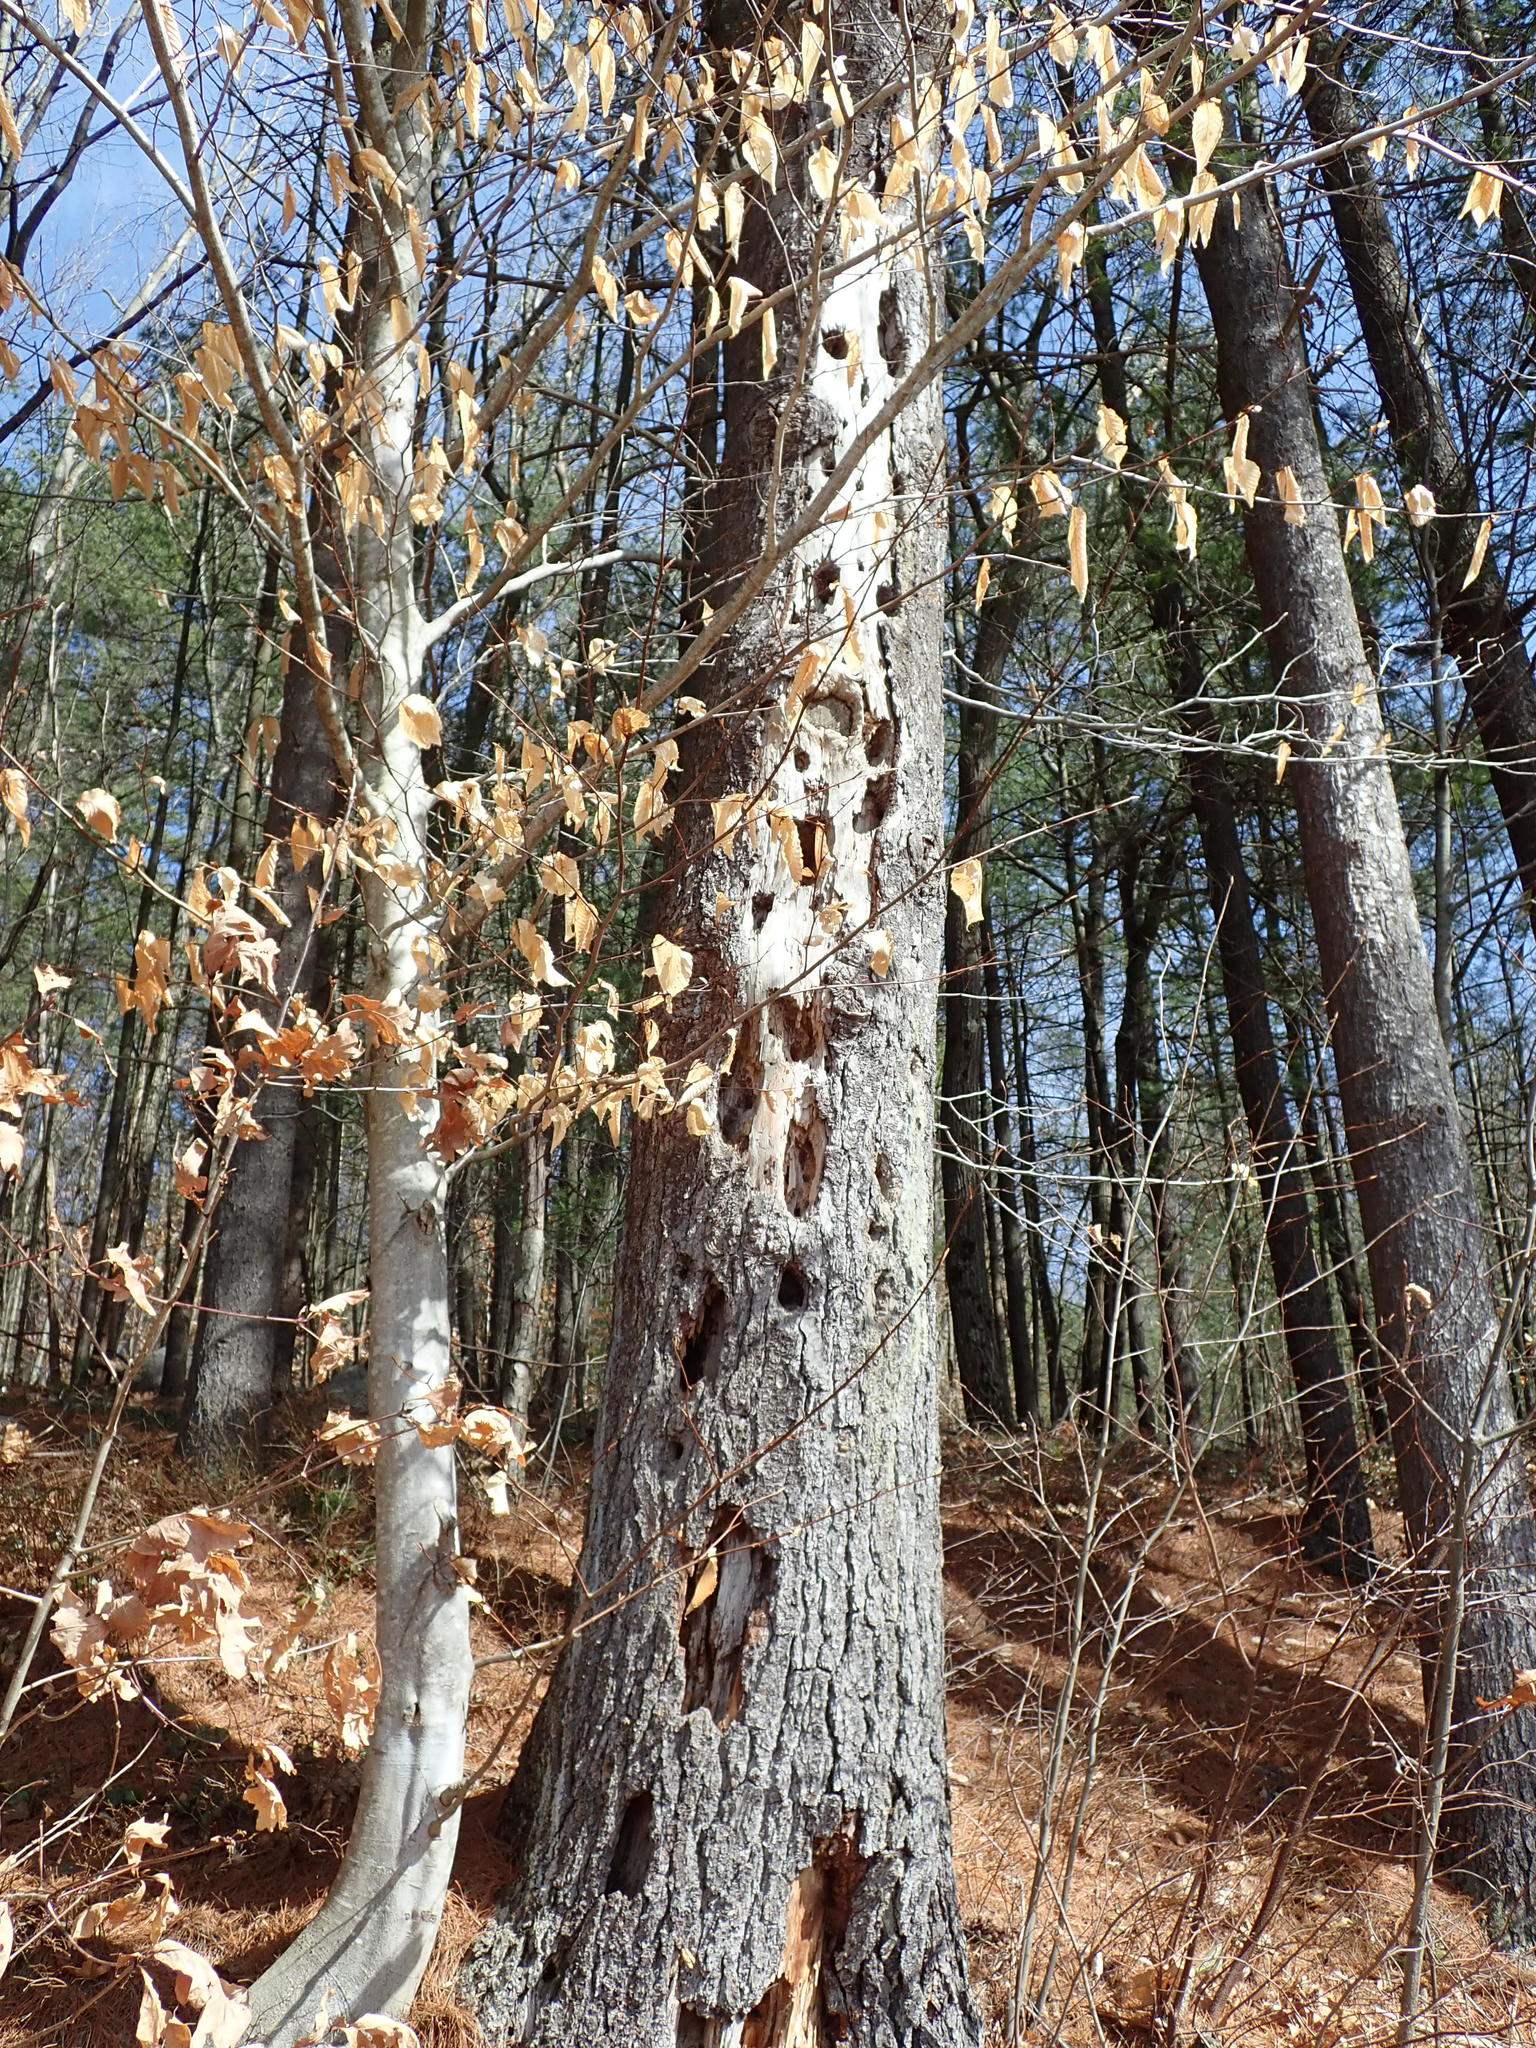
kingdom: Animalia
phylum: Chordata
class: Aves
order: Piciformes
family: Picidae
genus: Dryocopus
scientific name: Dryocopus pileatus
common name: Pileated woodpecker
